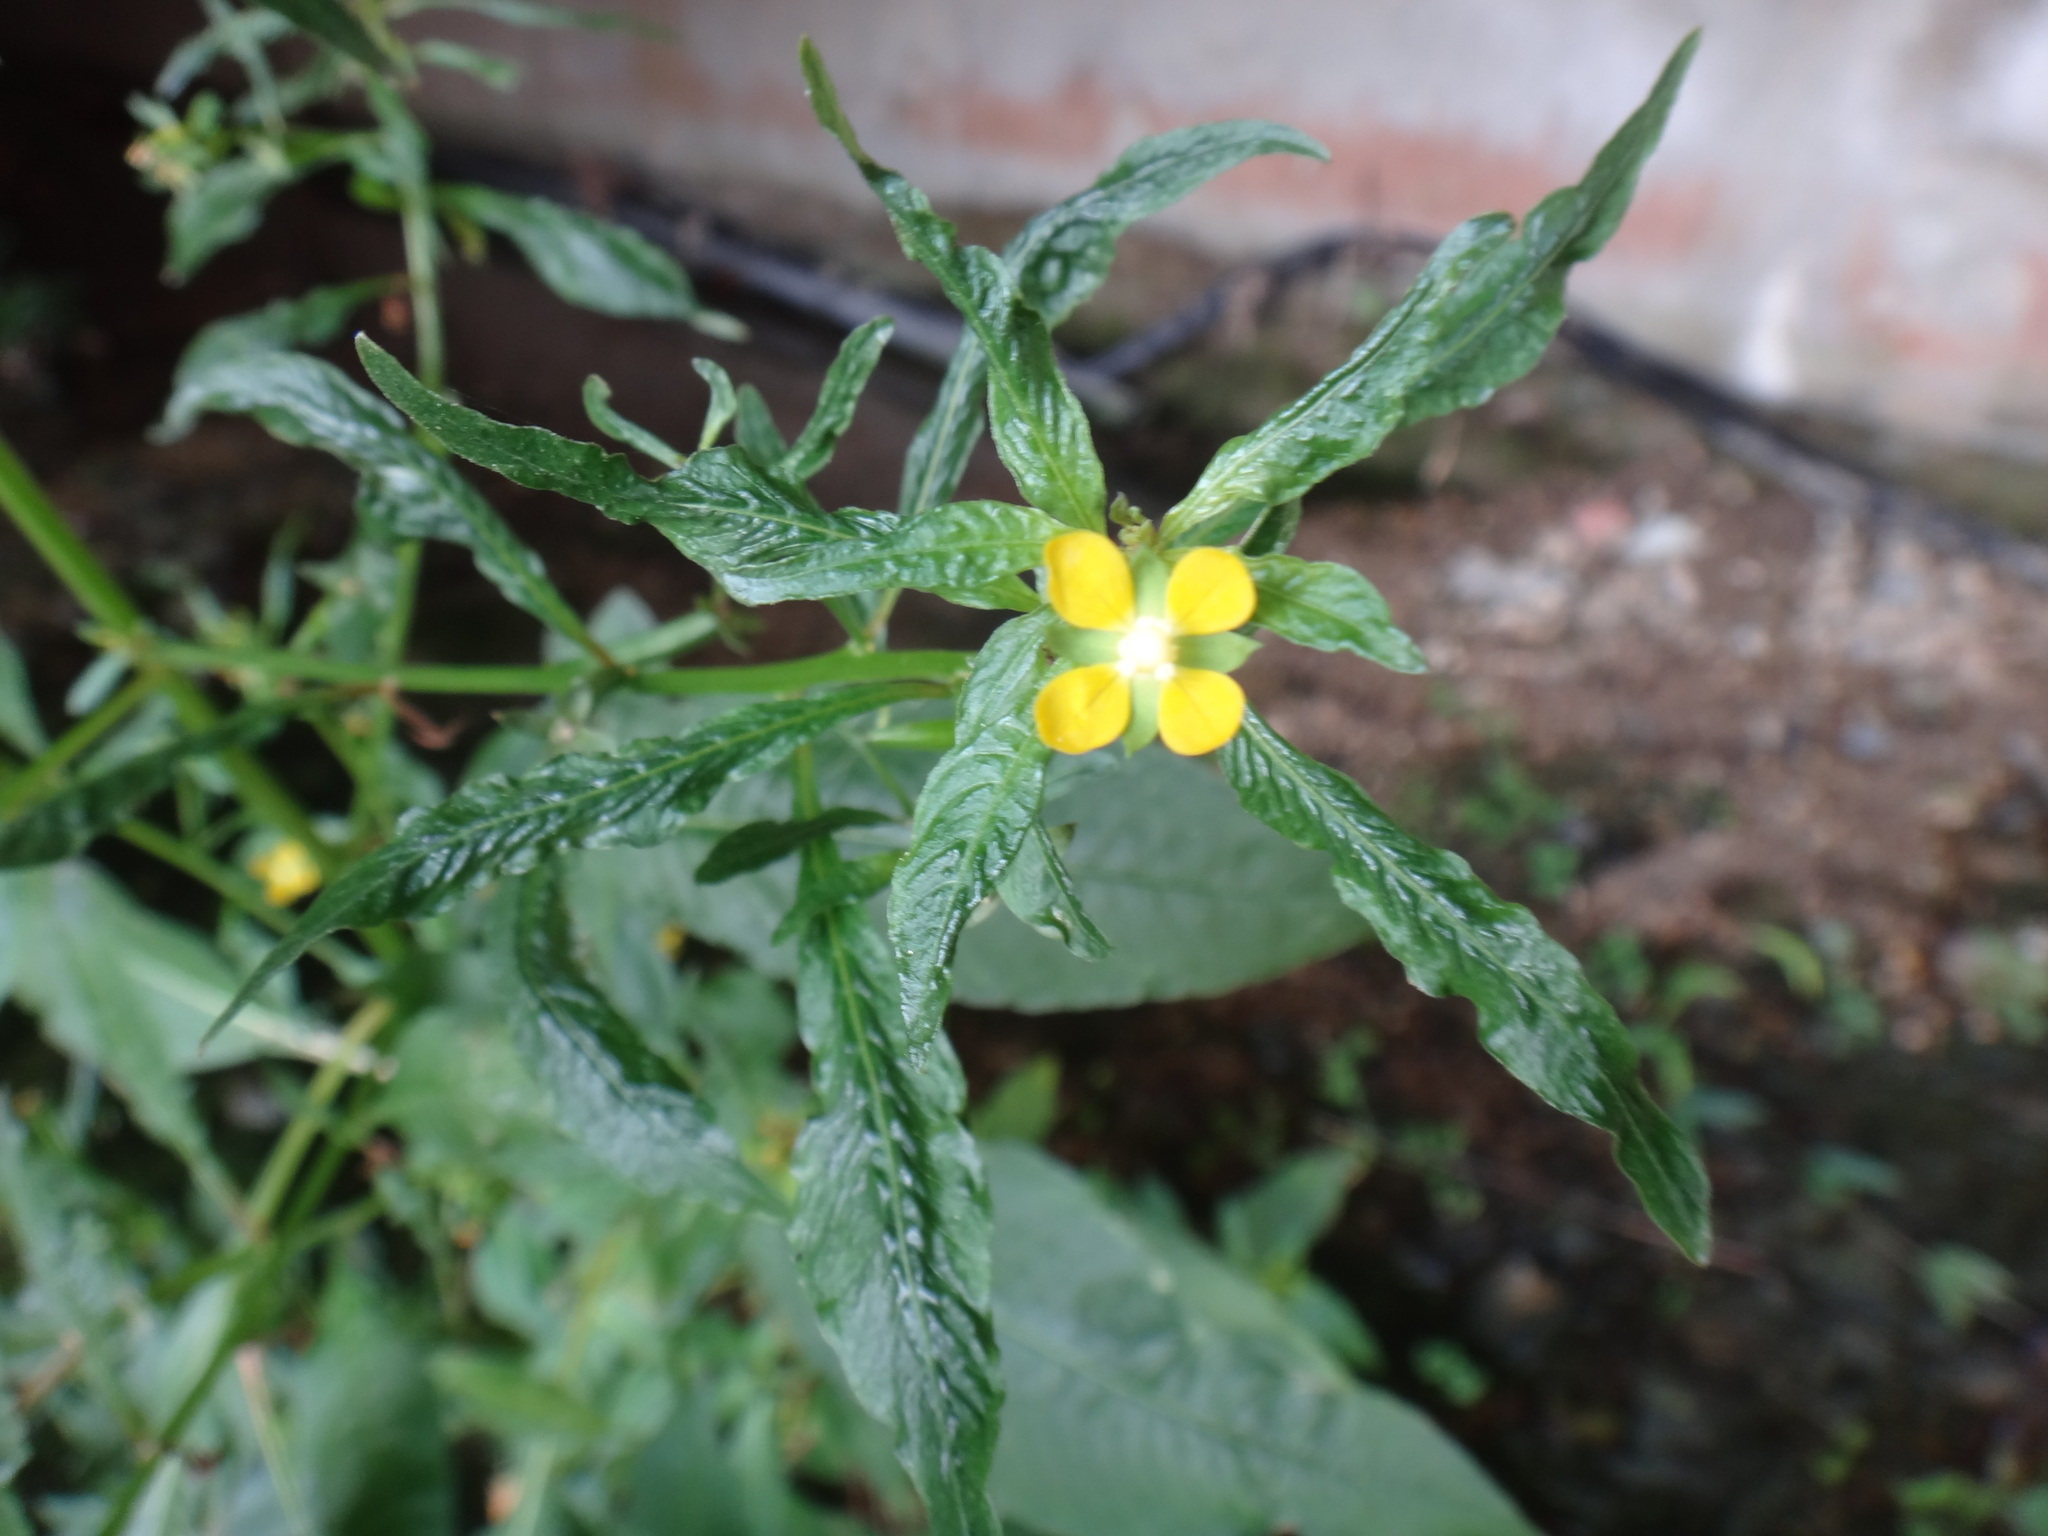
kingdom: Plantae
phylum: Tracheophyta
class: Magnoliopsida
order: Myrtales
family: Onagraceae
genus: Ludwigia
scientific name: Ludwigia hyssopifolia
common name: Linear leaf water primrose
